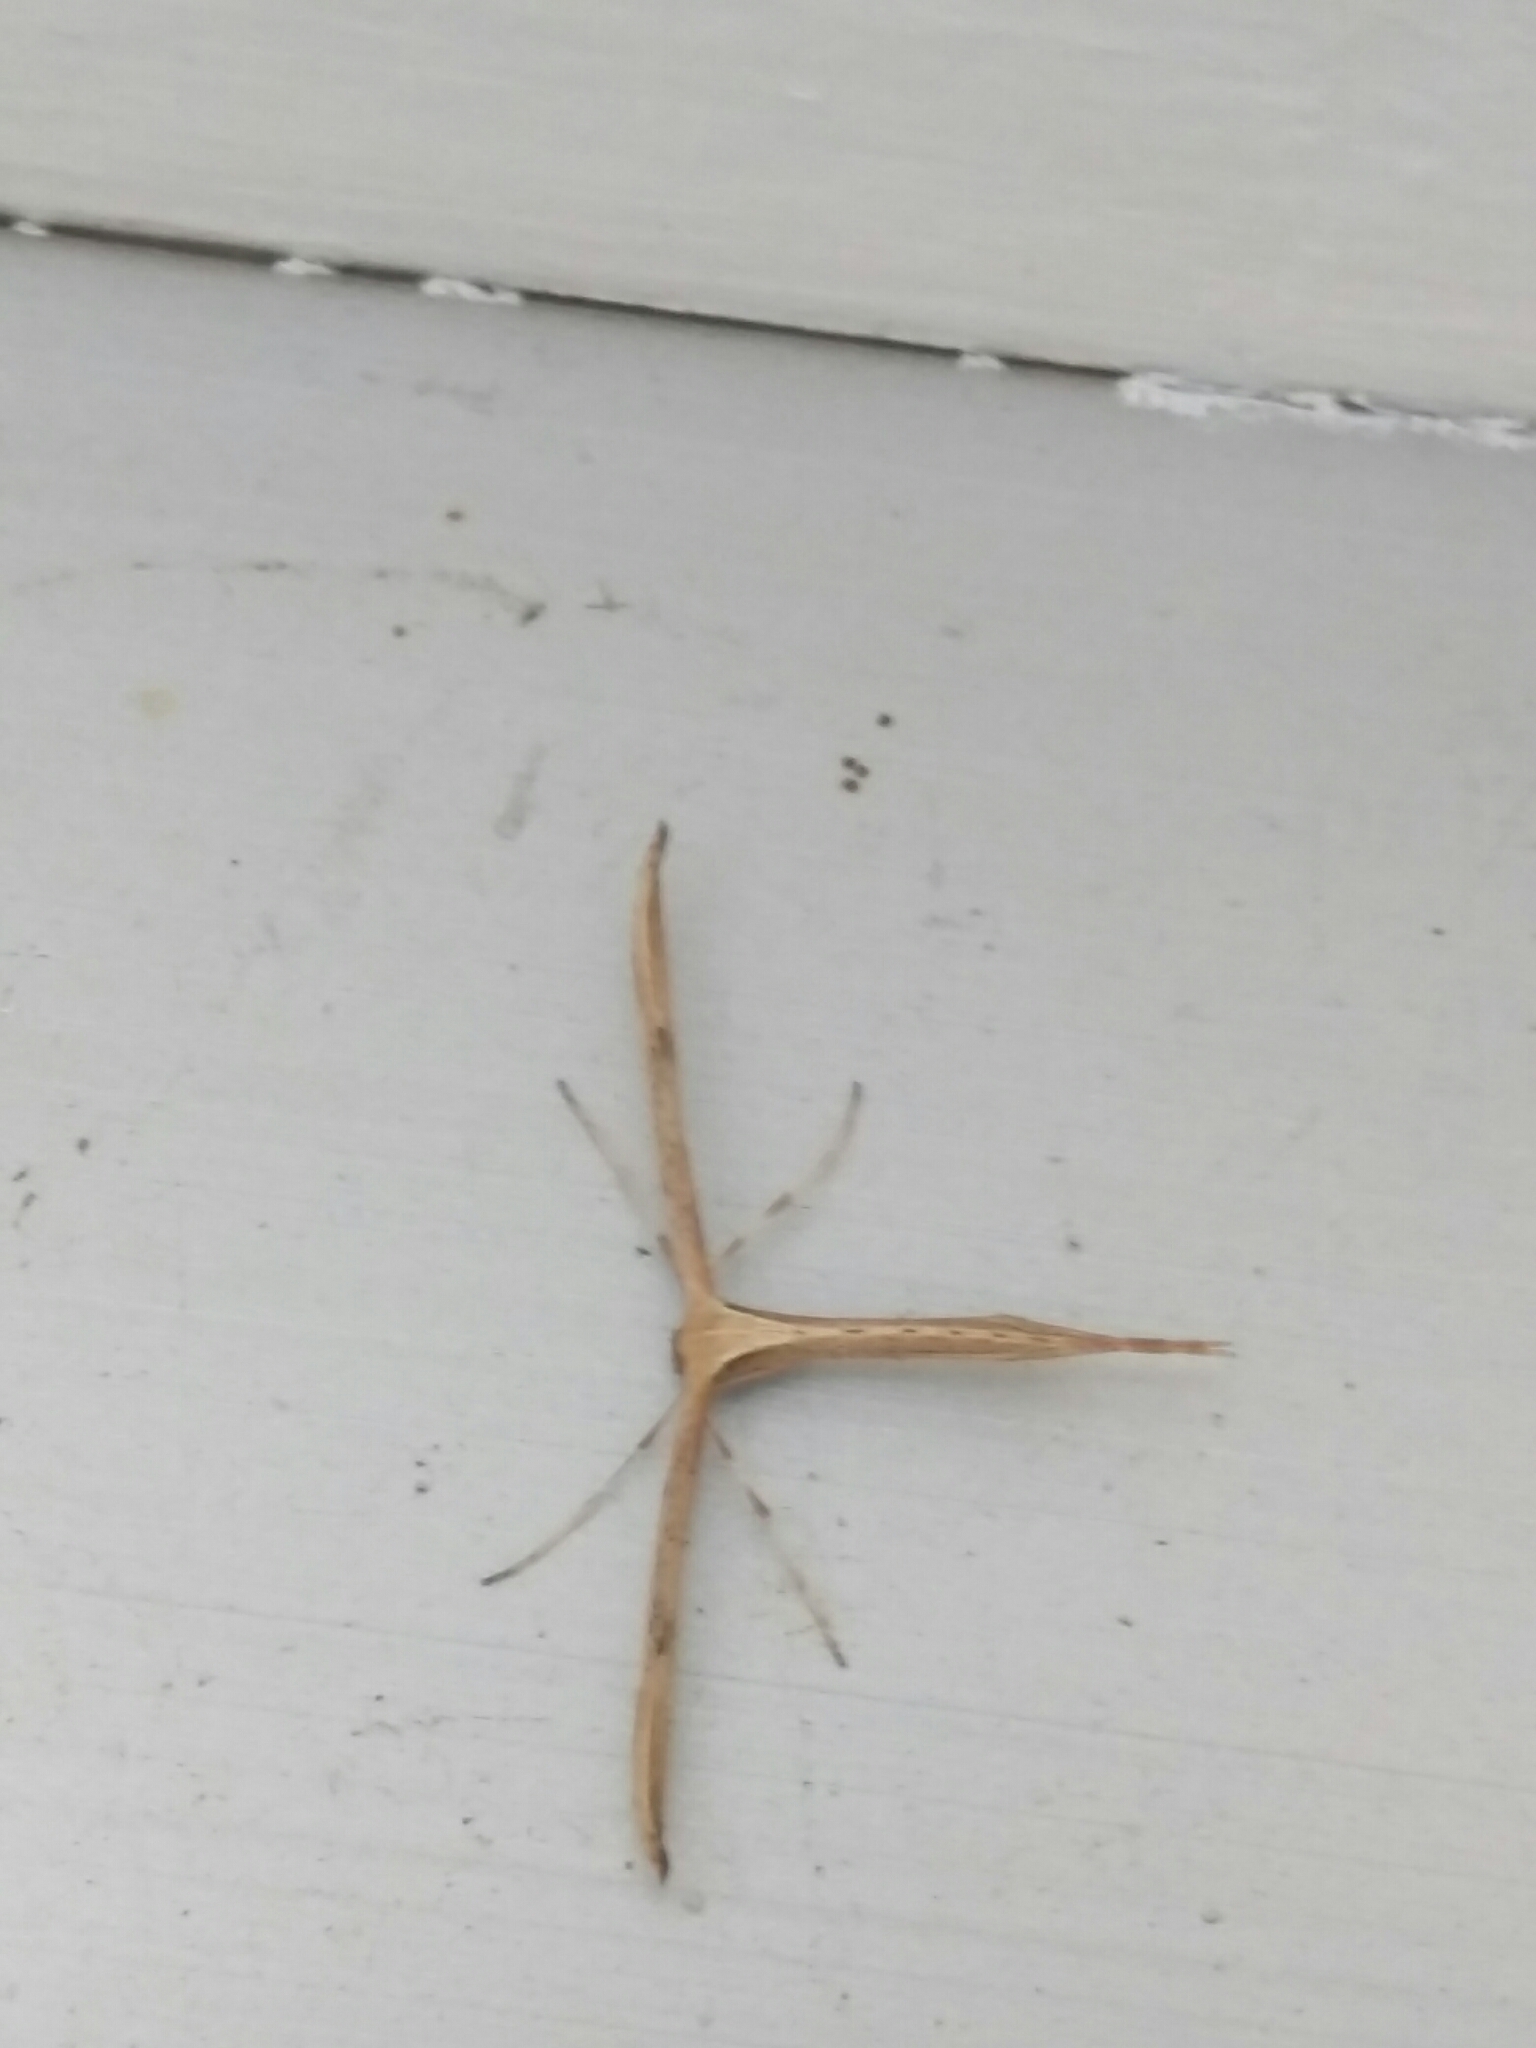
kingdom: Animalia
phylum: Arthropoda
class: Insecta
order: Lepidoptera
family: Pterophoridae
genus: Emmelina
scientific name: Emmelina monodactyla
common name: Common plume
